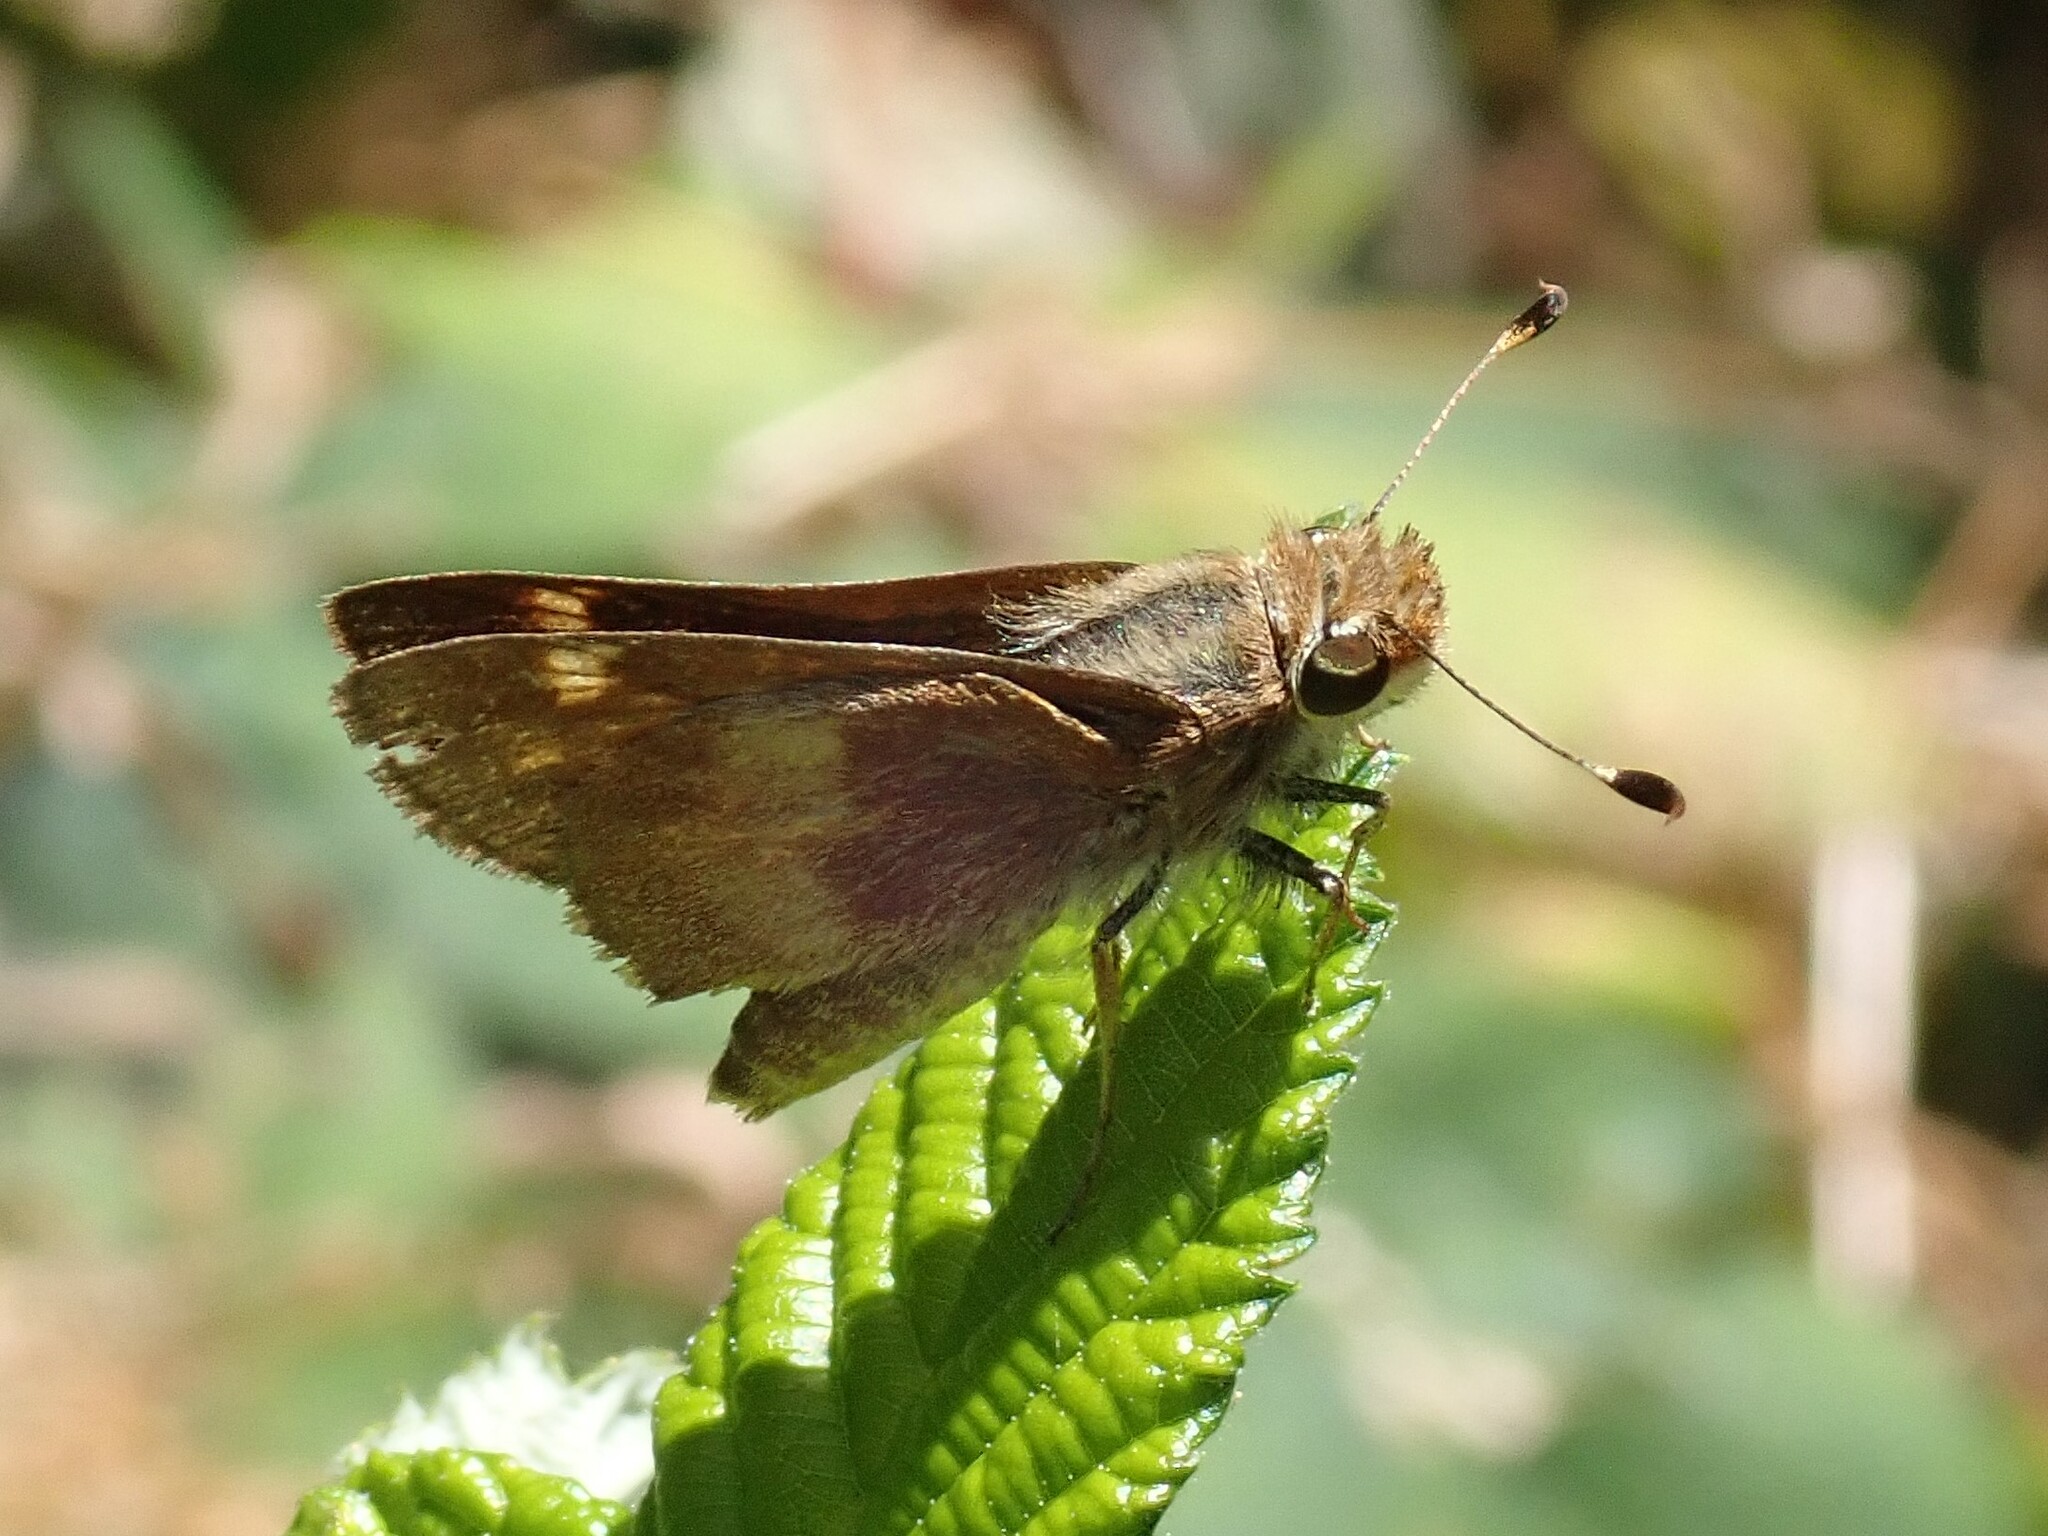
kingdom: Animalia
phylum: Arthropoda
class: Insecta
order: Lepidoptera
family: Hesperiidae
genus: Lon
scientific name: Lon melane
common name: Umber skipper
